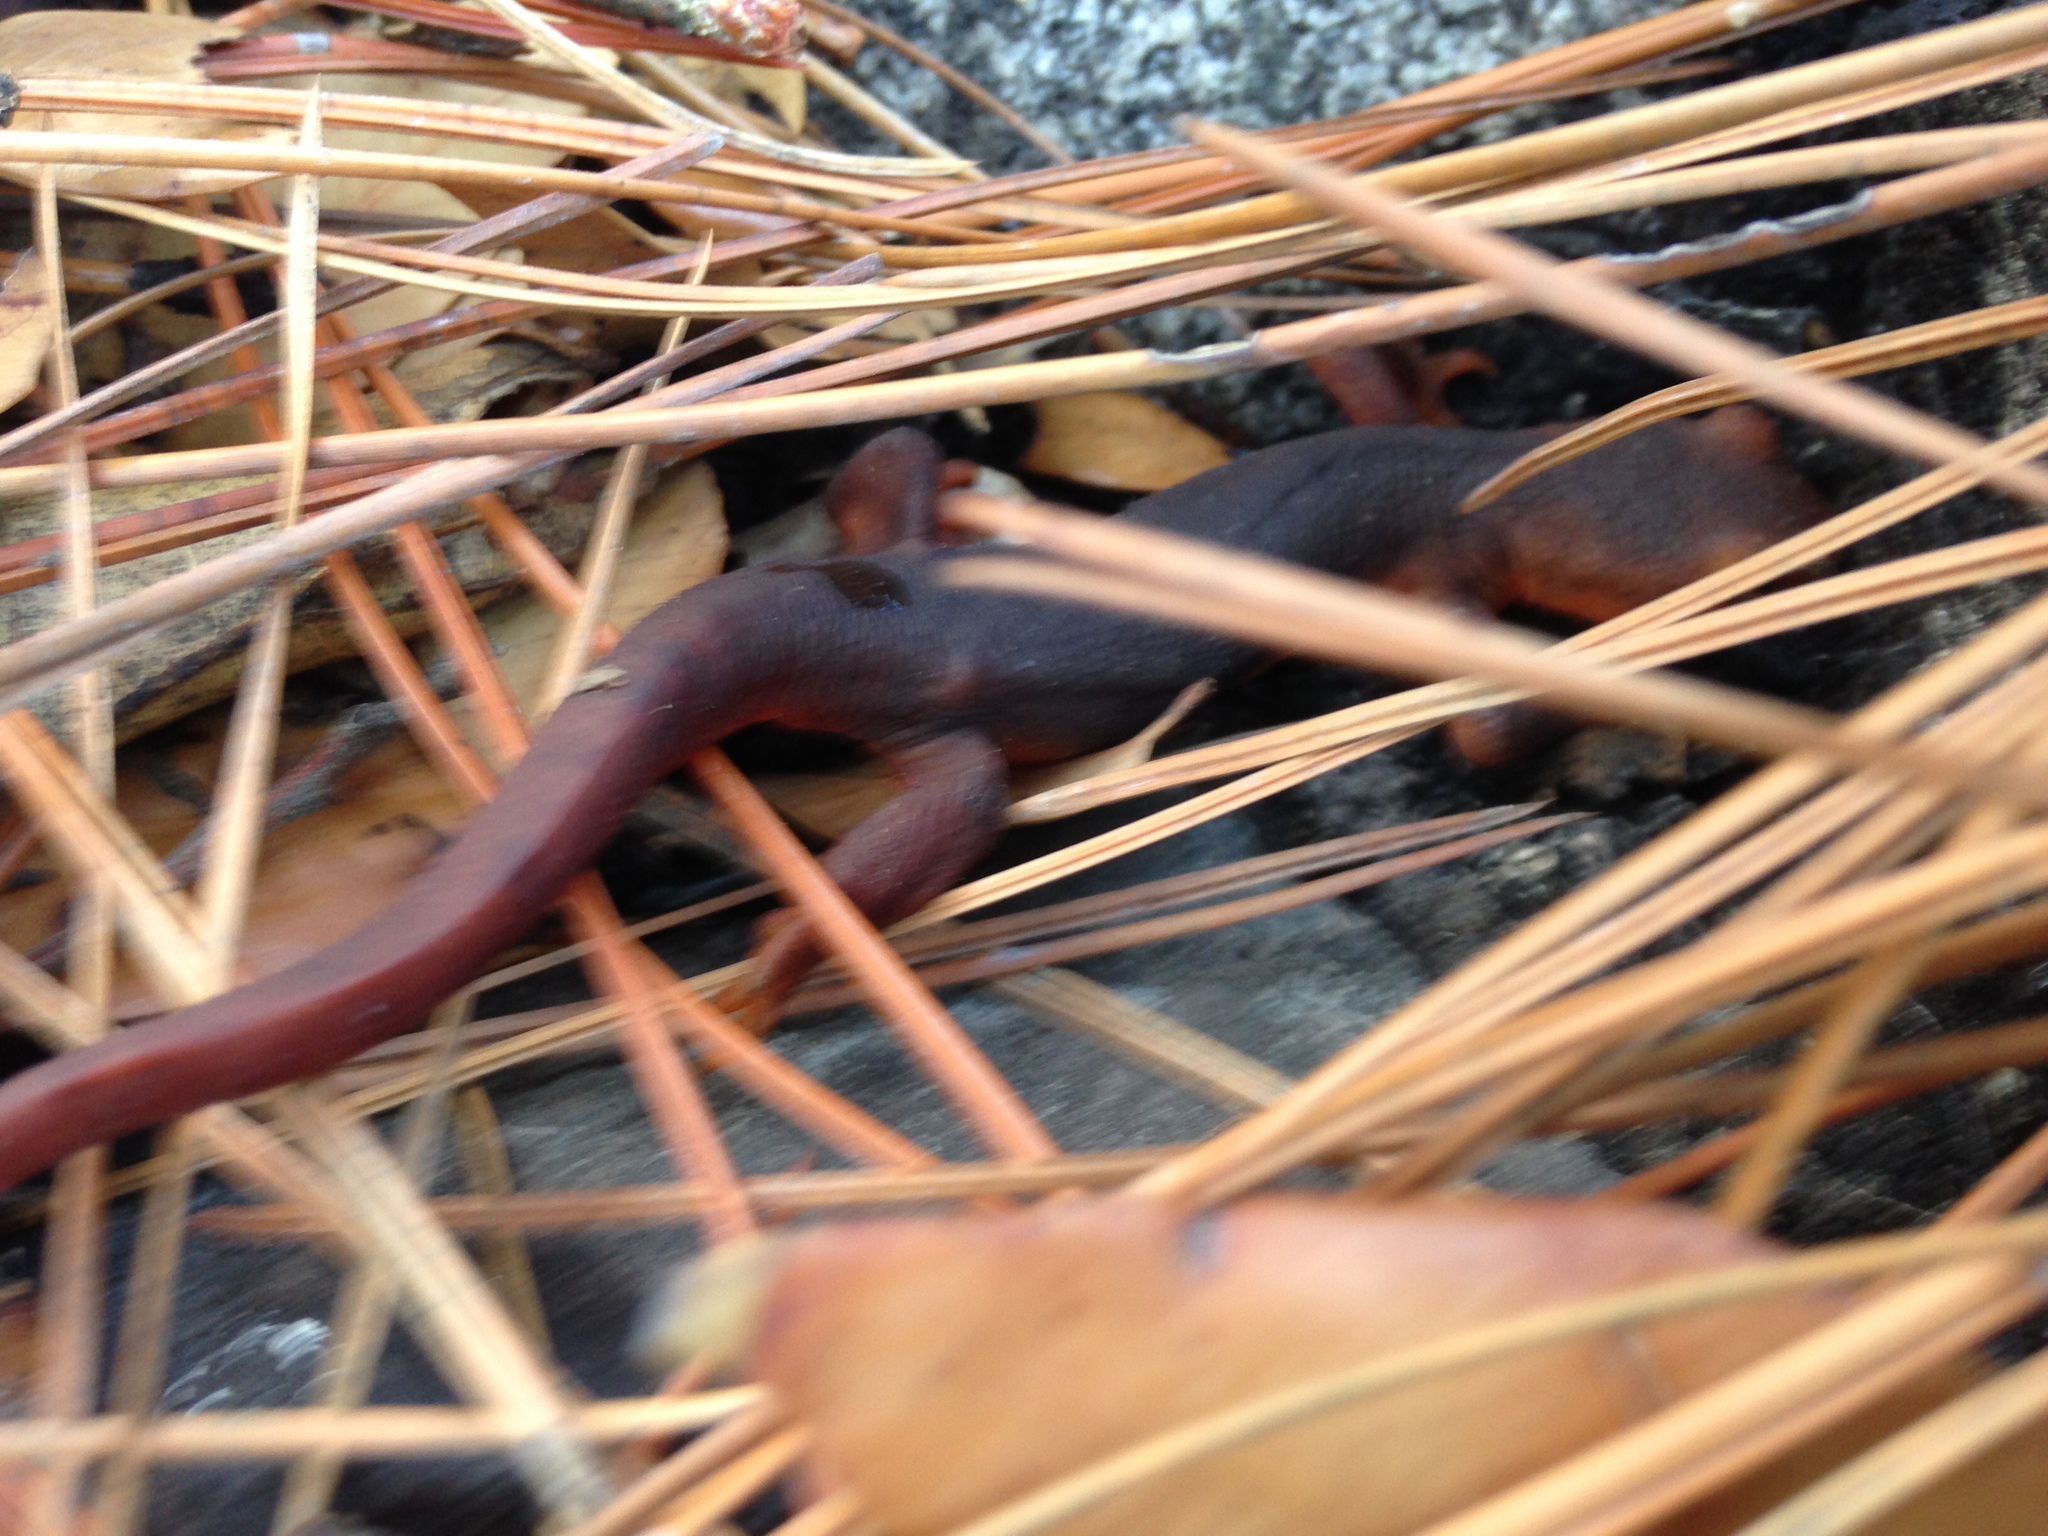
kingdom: Animalia
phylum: Chordata
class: Amphibia
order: Caudata
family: Salamandridae
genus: Taricha
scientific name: Taricha sierrae
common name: Sierra newt
